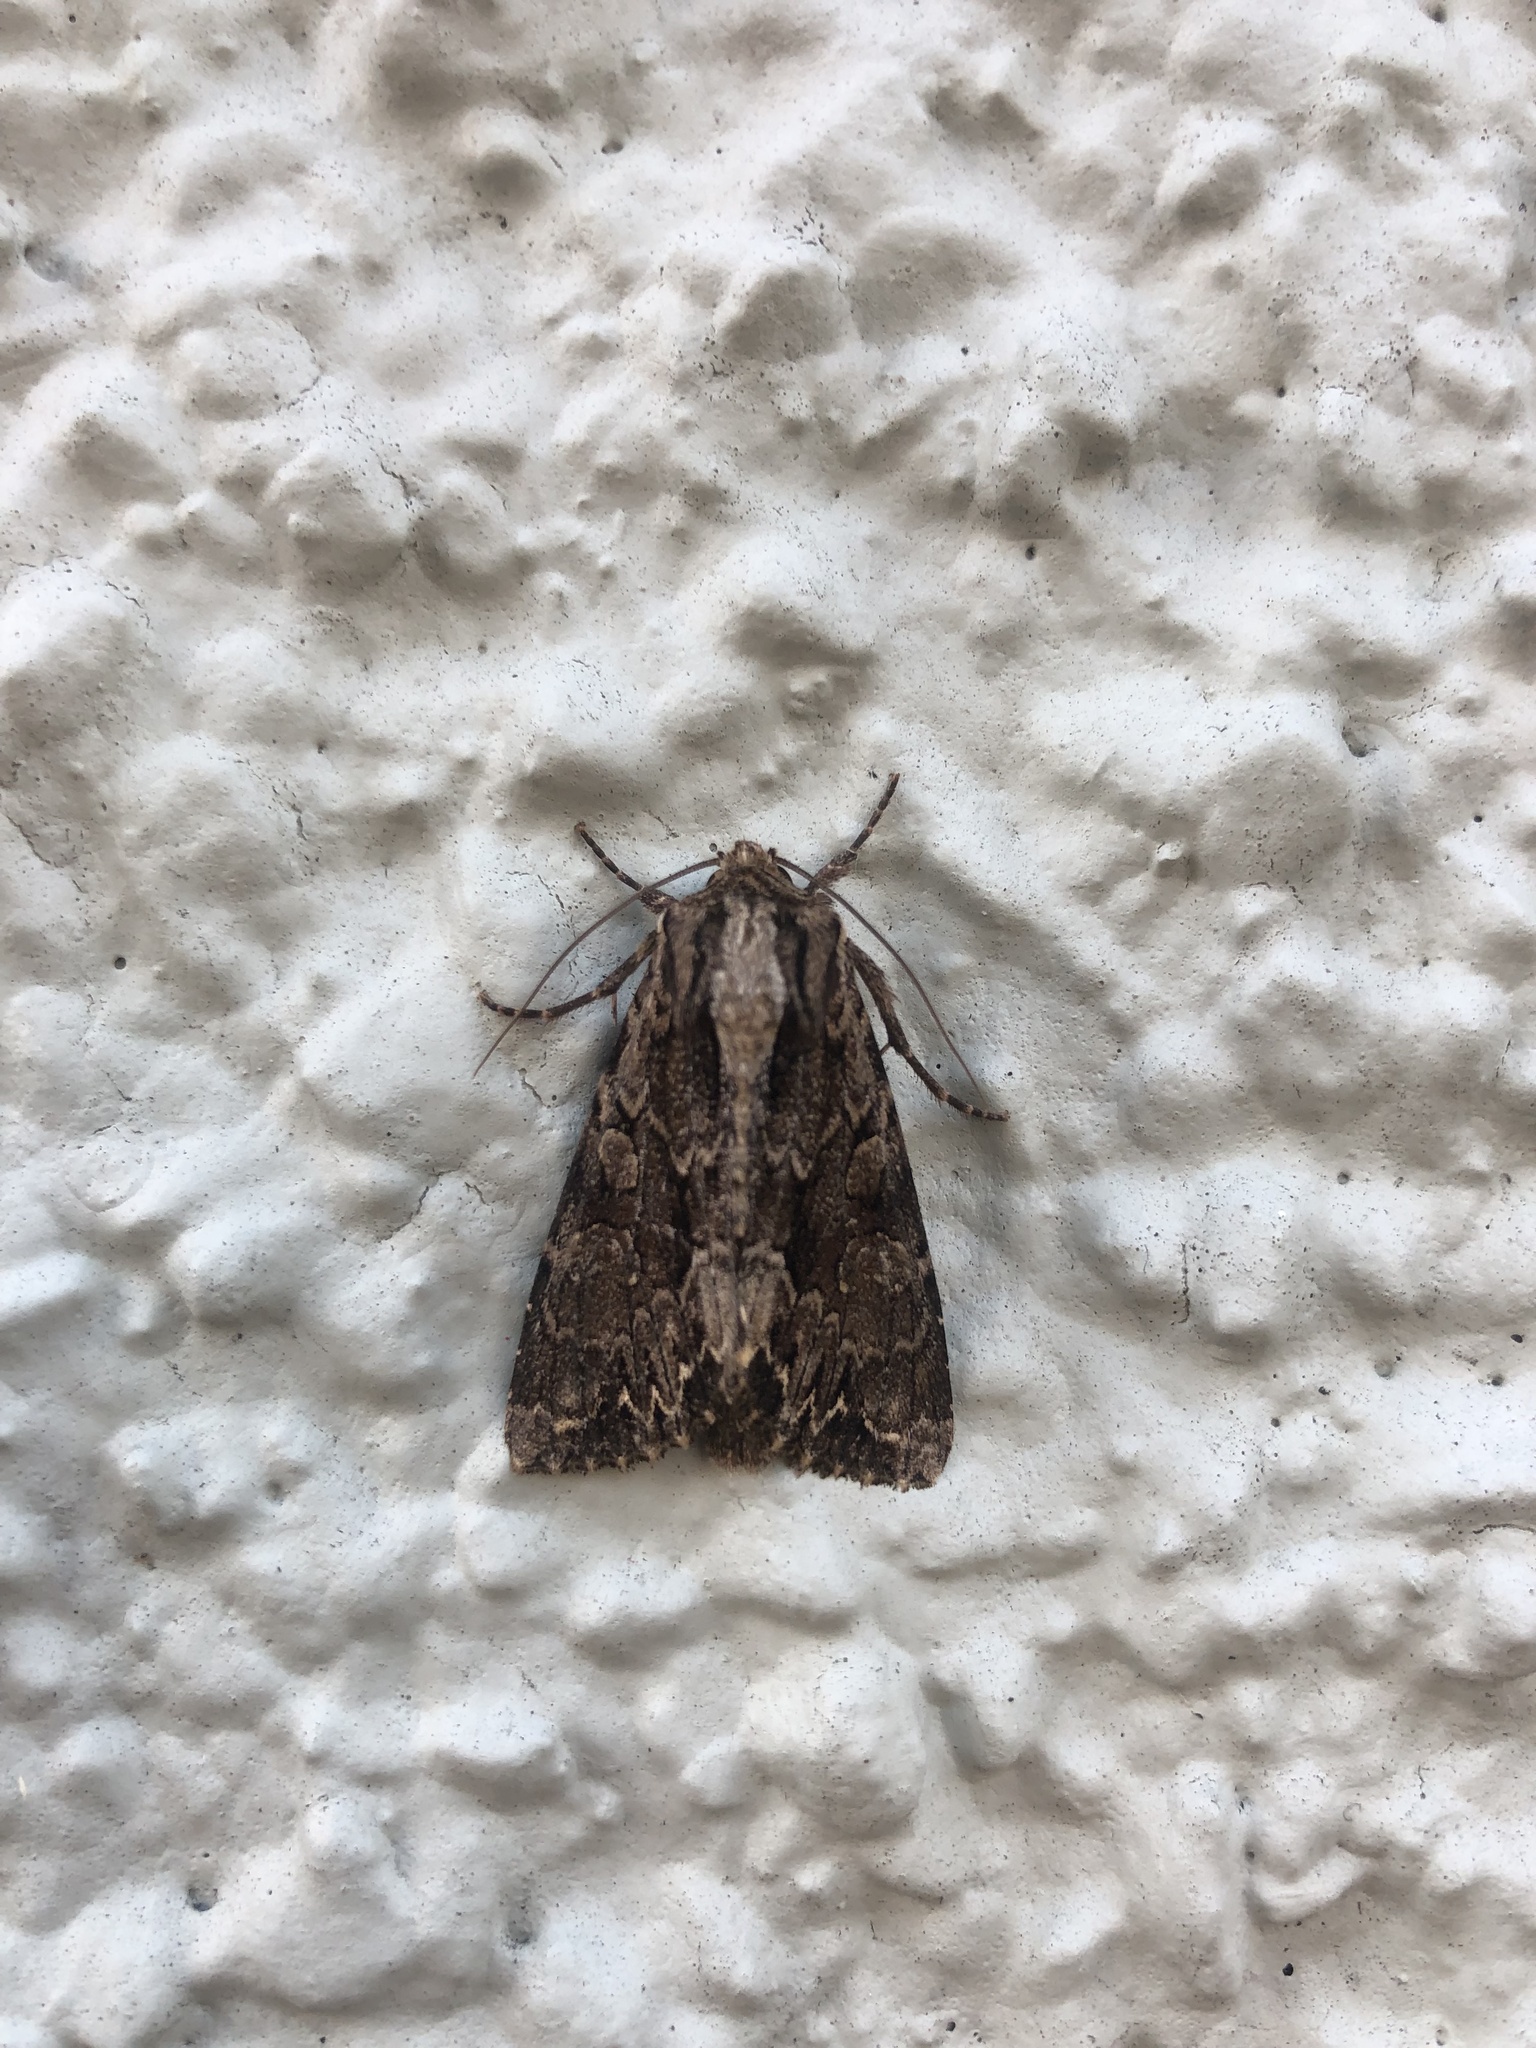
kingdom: Animalia
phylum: Arthropoda
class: Insecta
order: Lepidoptera
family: Noctuidae
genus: Apamea
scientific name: Apamea monoglypha
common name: Dark arches
